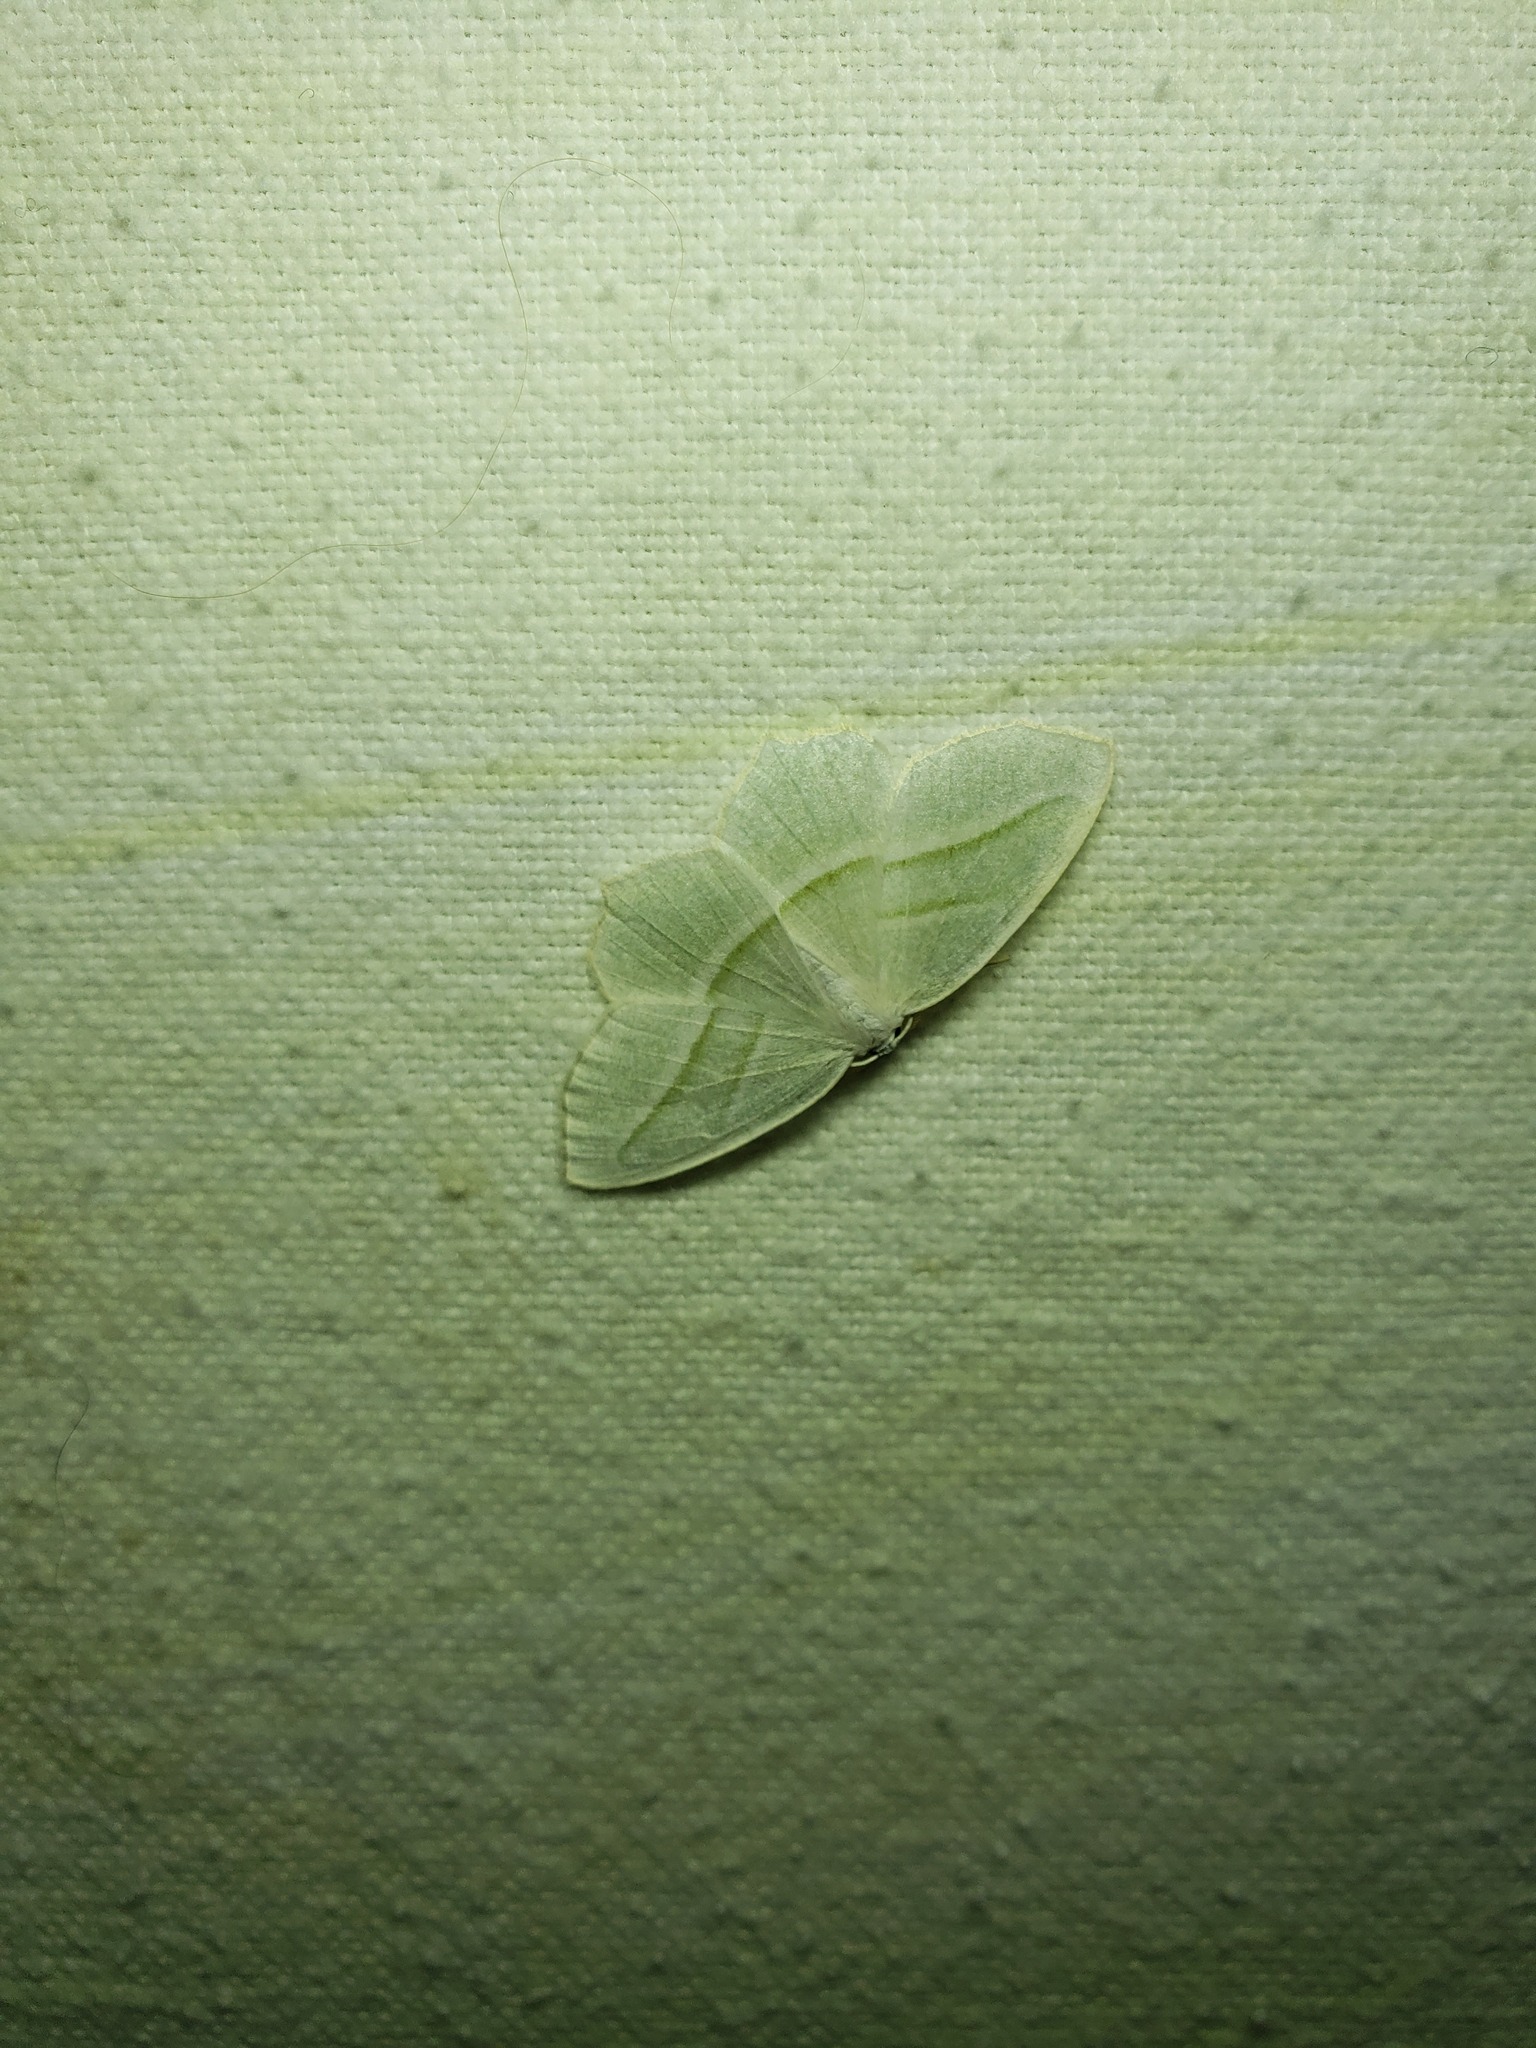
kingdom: Animalia
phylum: Arthropoda
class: Insecta
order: Lepidoptera
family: Geometridae
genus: Campaea
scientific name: Campaea perlata
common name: Fringed looper
